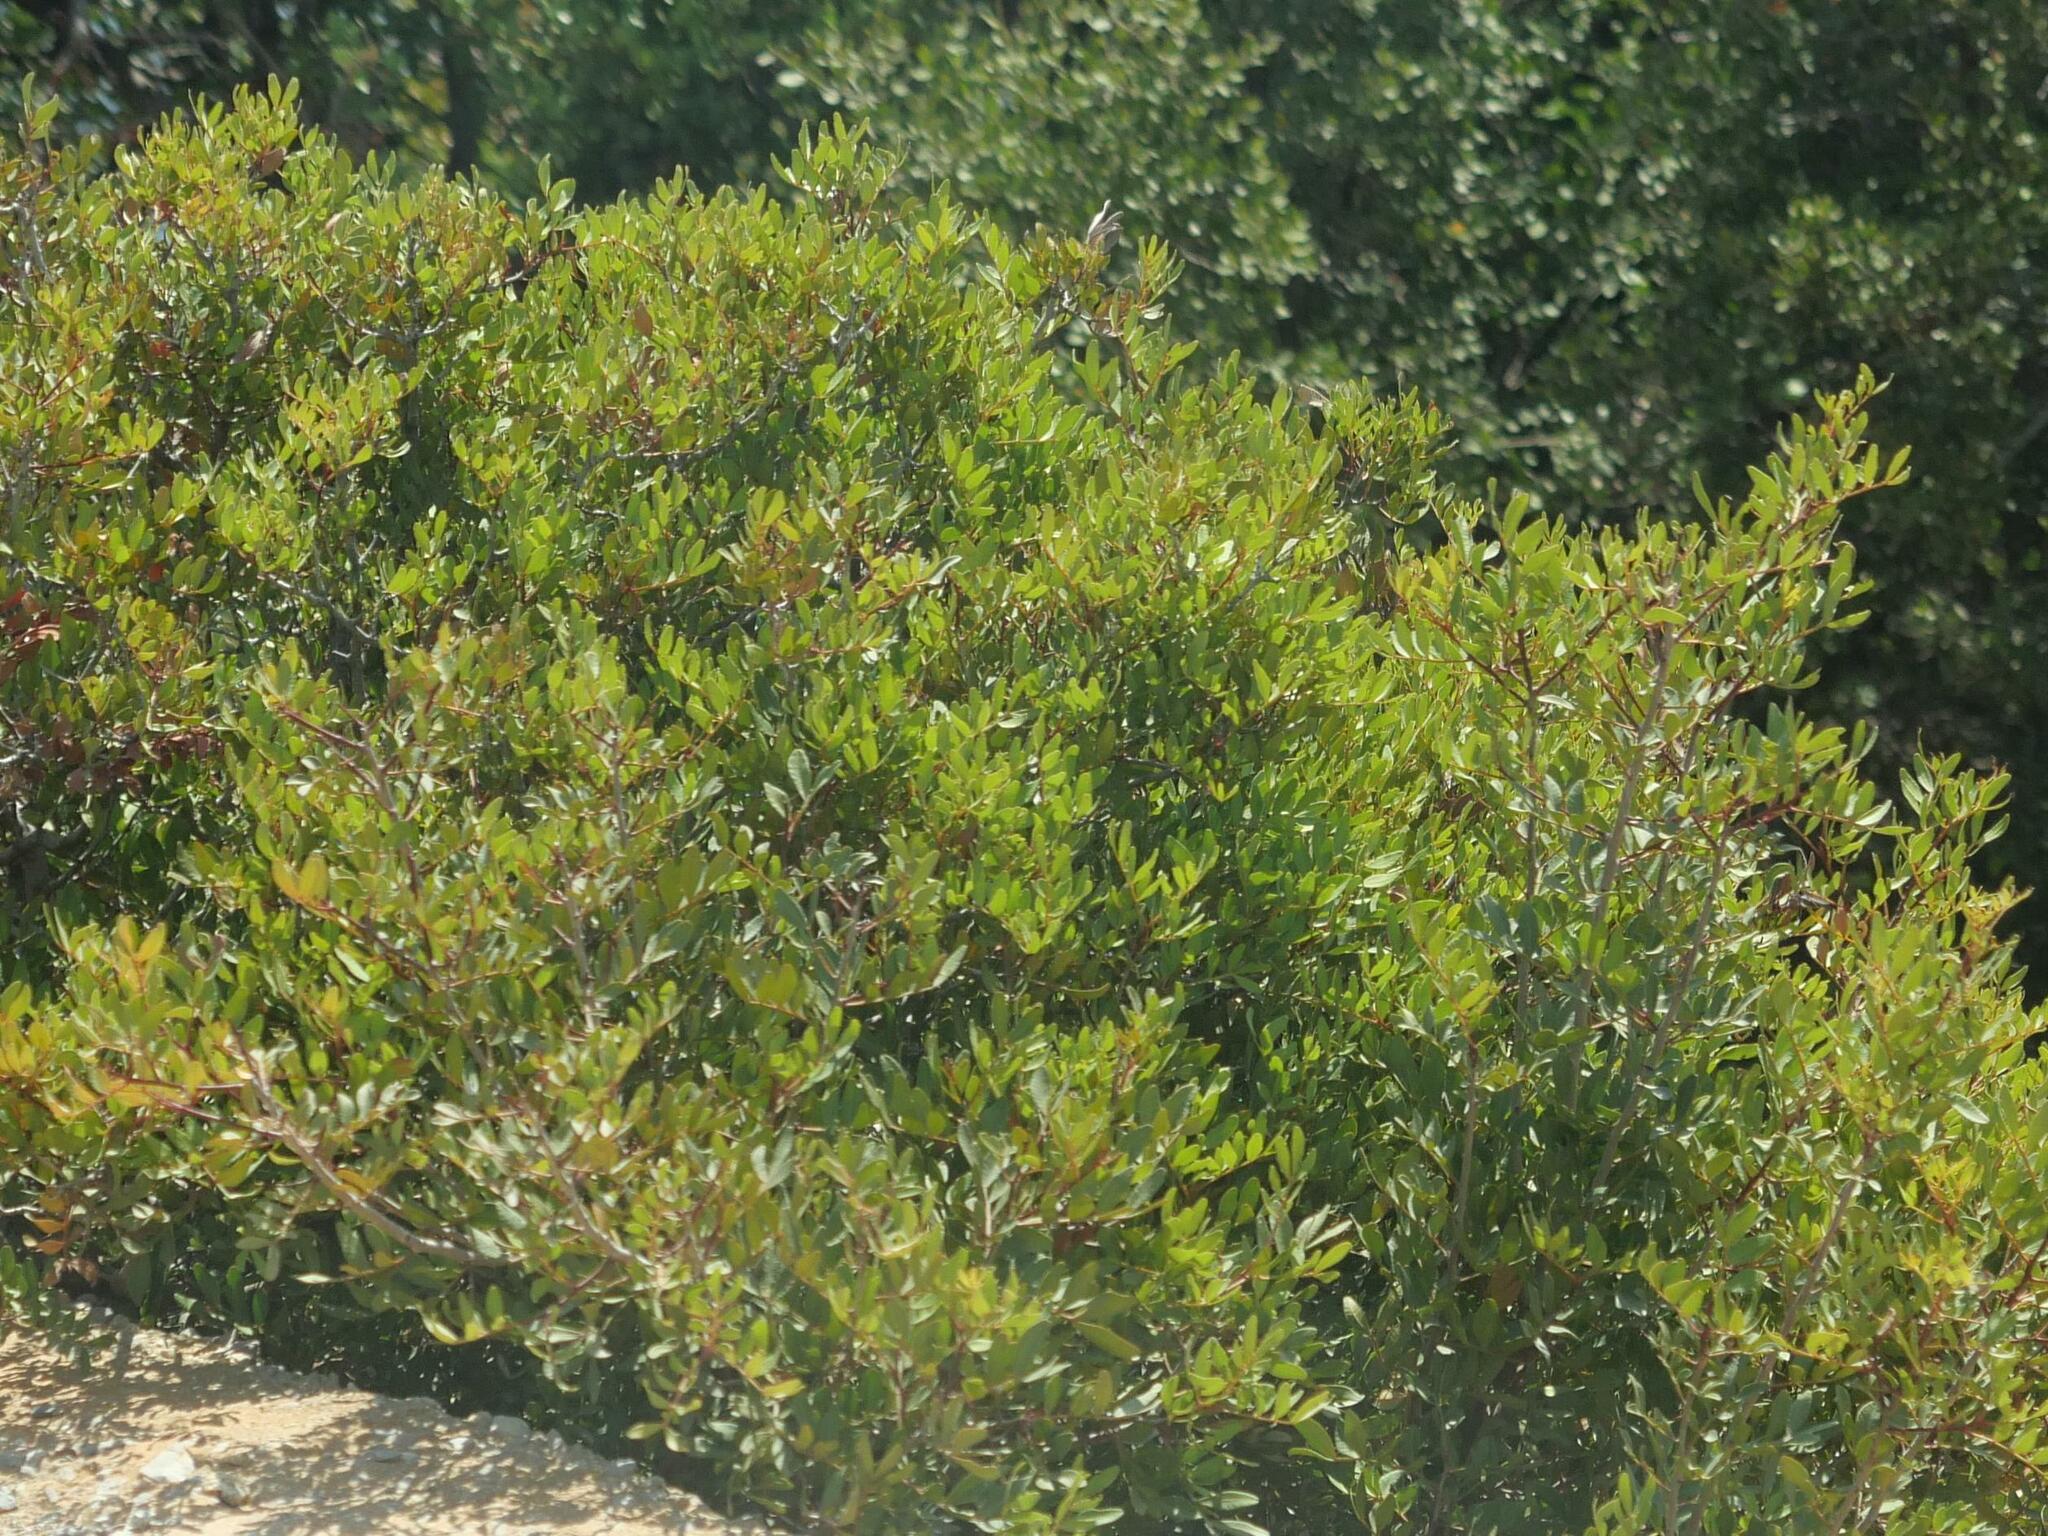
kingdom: Plantae
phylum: Tracheophyta
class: Magnoliopsida
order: Sapindales
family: Anacardiaceae
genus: Pistacia
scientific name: Pistacia lentiscus
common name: Lentisk
